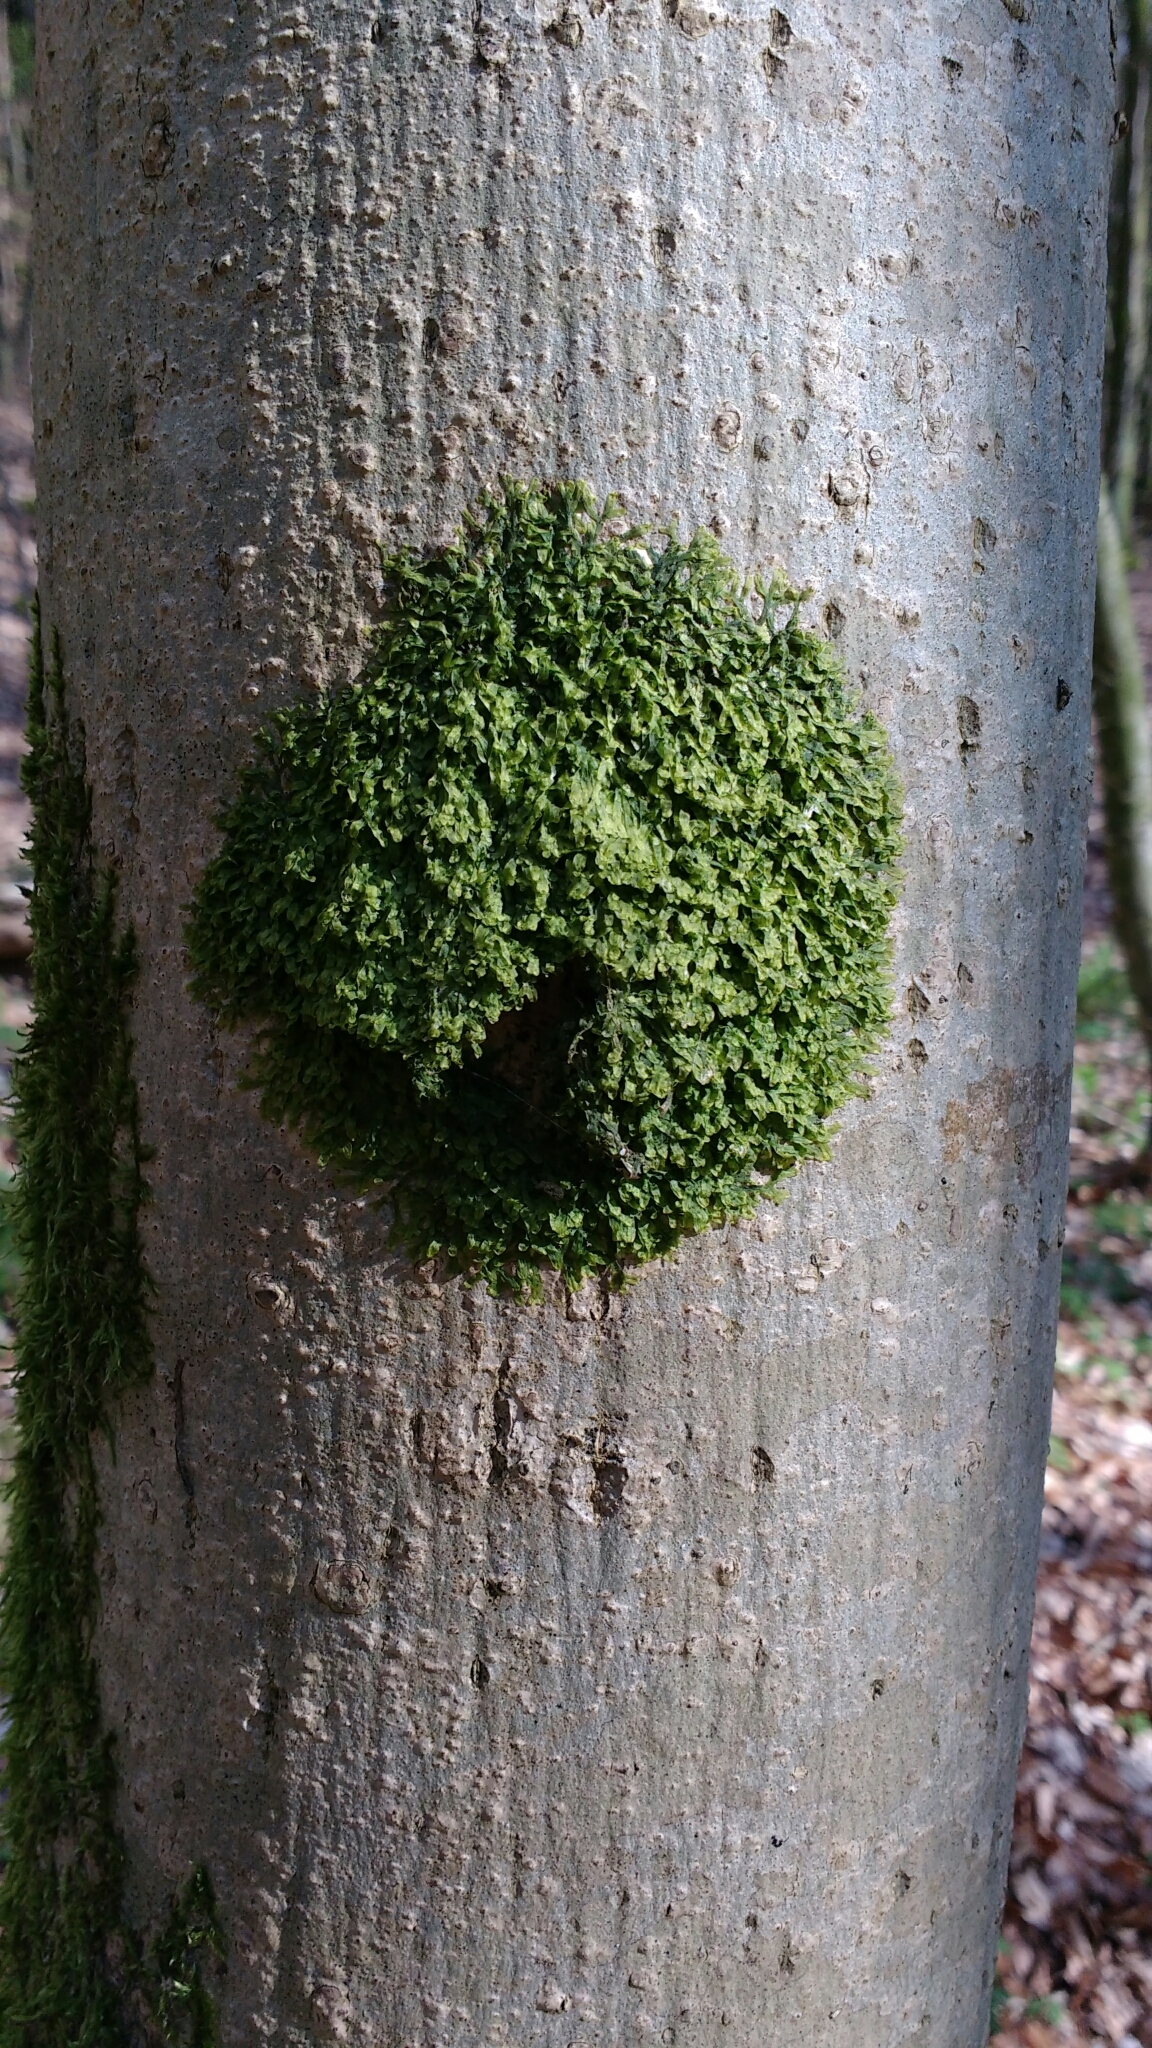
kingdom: Plantae
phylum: Marchantiophyta
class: Jungermanniopsida
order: Porellales
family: Radulaceae
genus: Radula
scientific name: Radula complanata
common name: Flat-leaved scalewort
